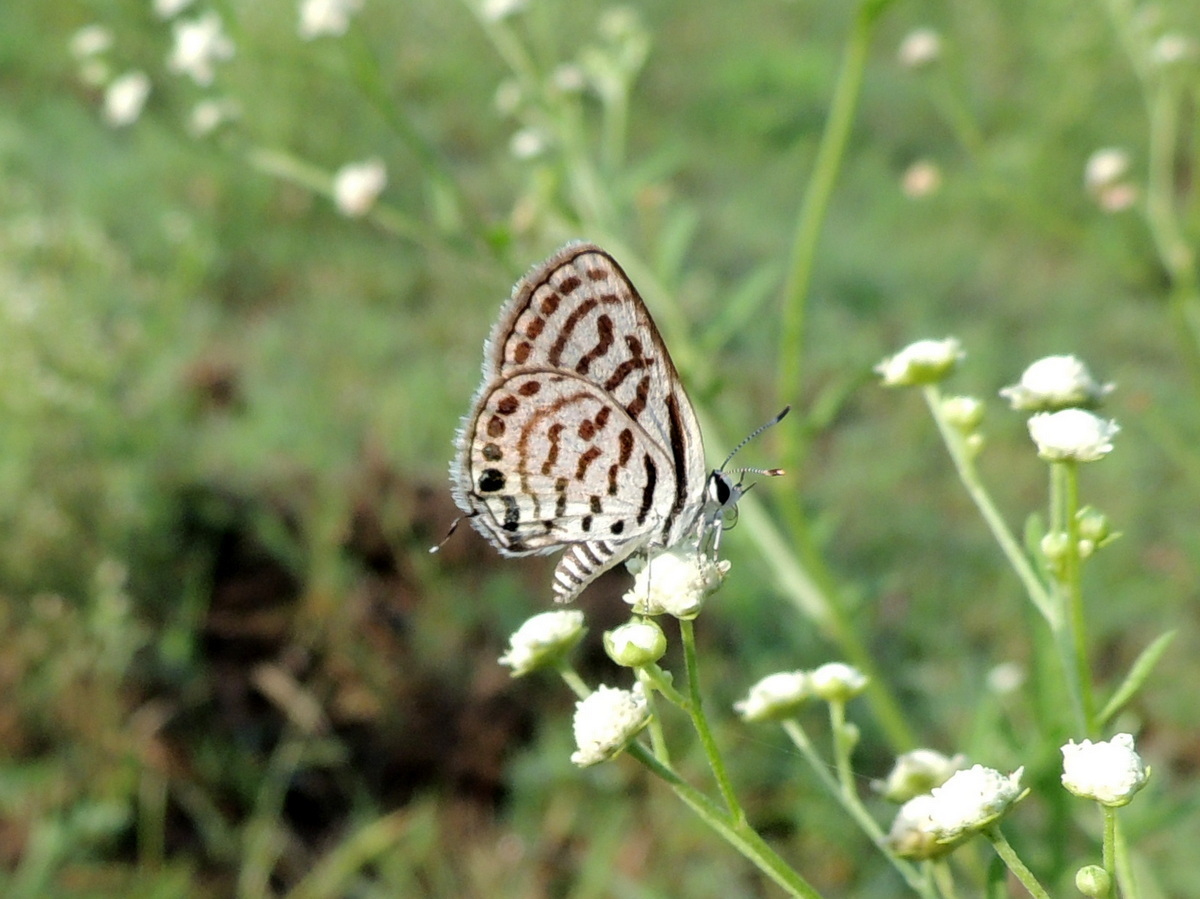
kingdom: Animalia
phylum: Arthropoda
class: Insecta
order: Lepidoptera
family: Lycaenidae
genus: Tarucus
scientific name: Tarucus
